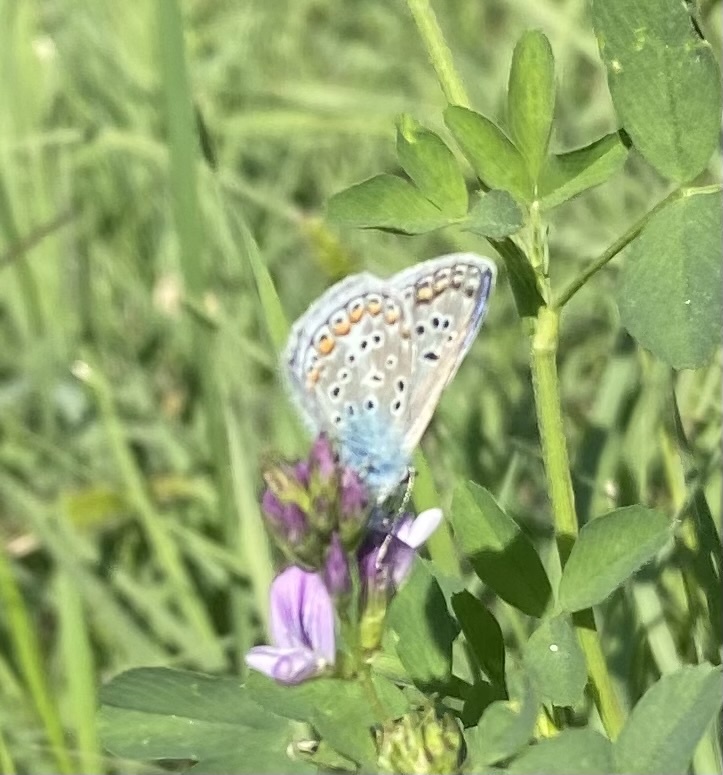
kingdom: Animalia
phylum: Arthropoda
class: Insecta
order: Lepidoptera
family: Lycaenidae
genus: Polyommatus
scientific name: Polyommatus icarus
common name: Common blue
